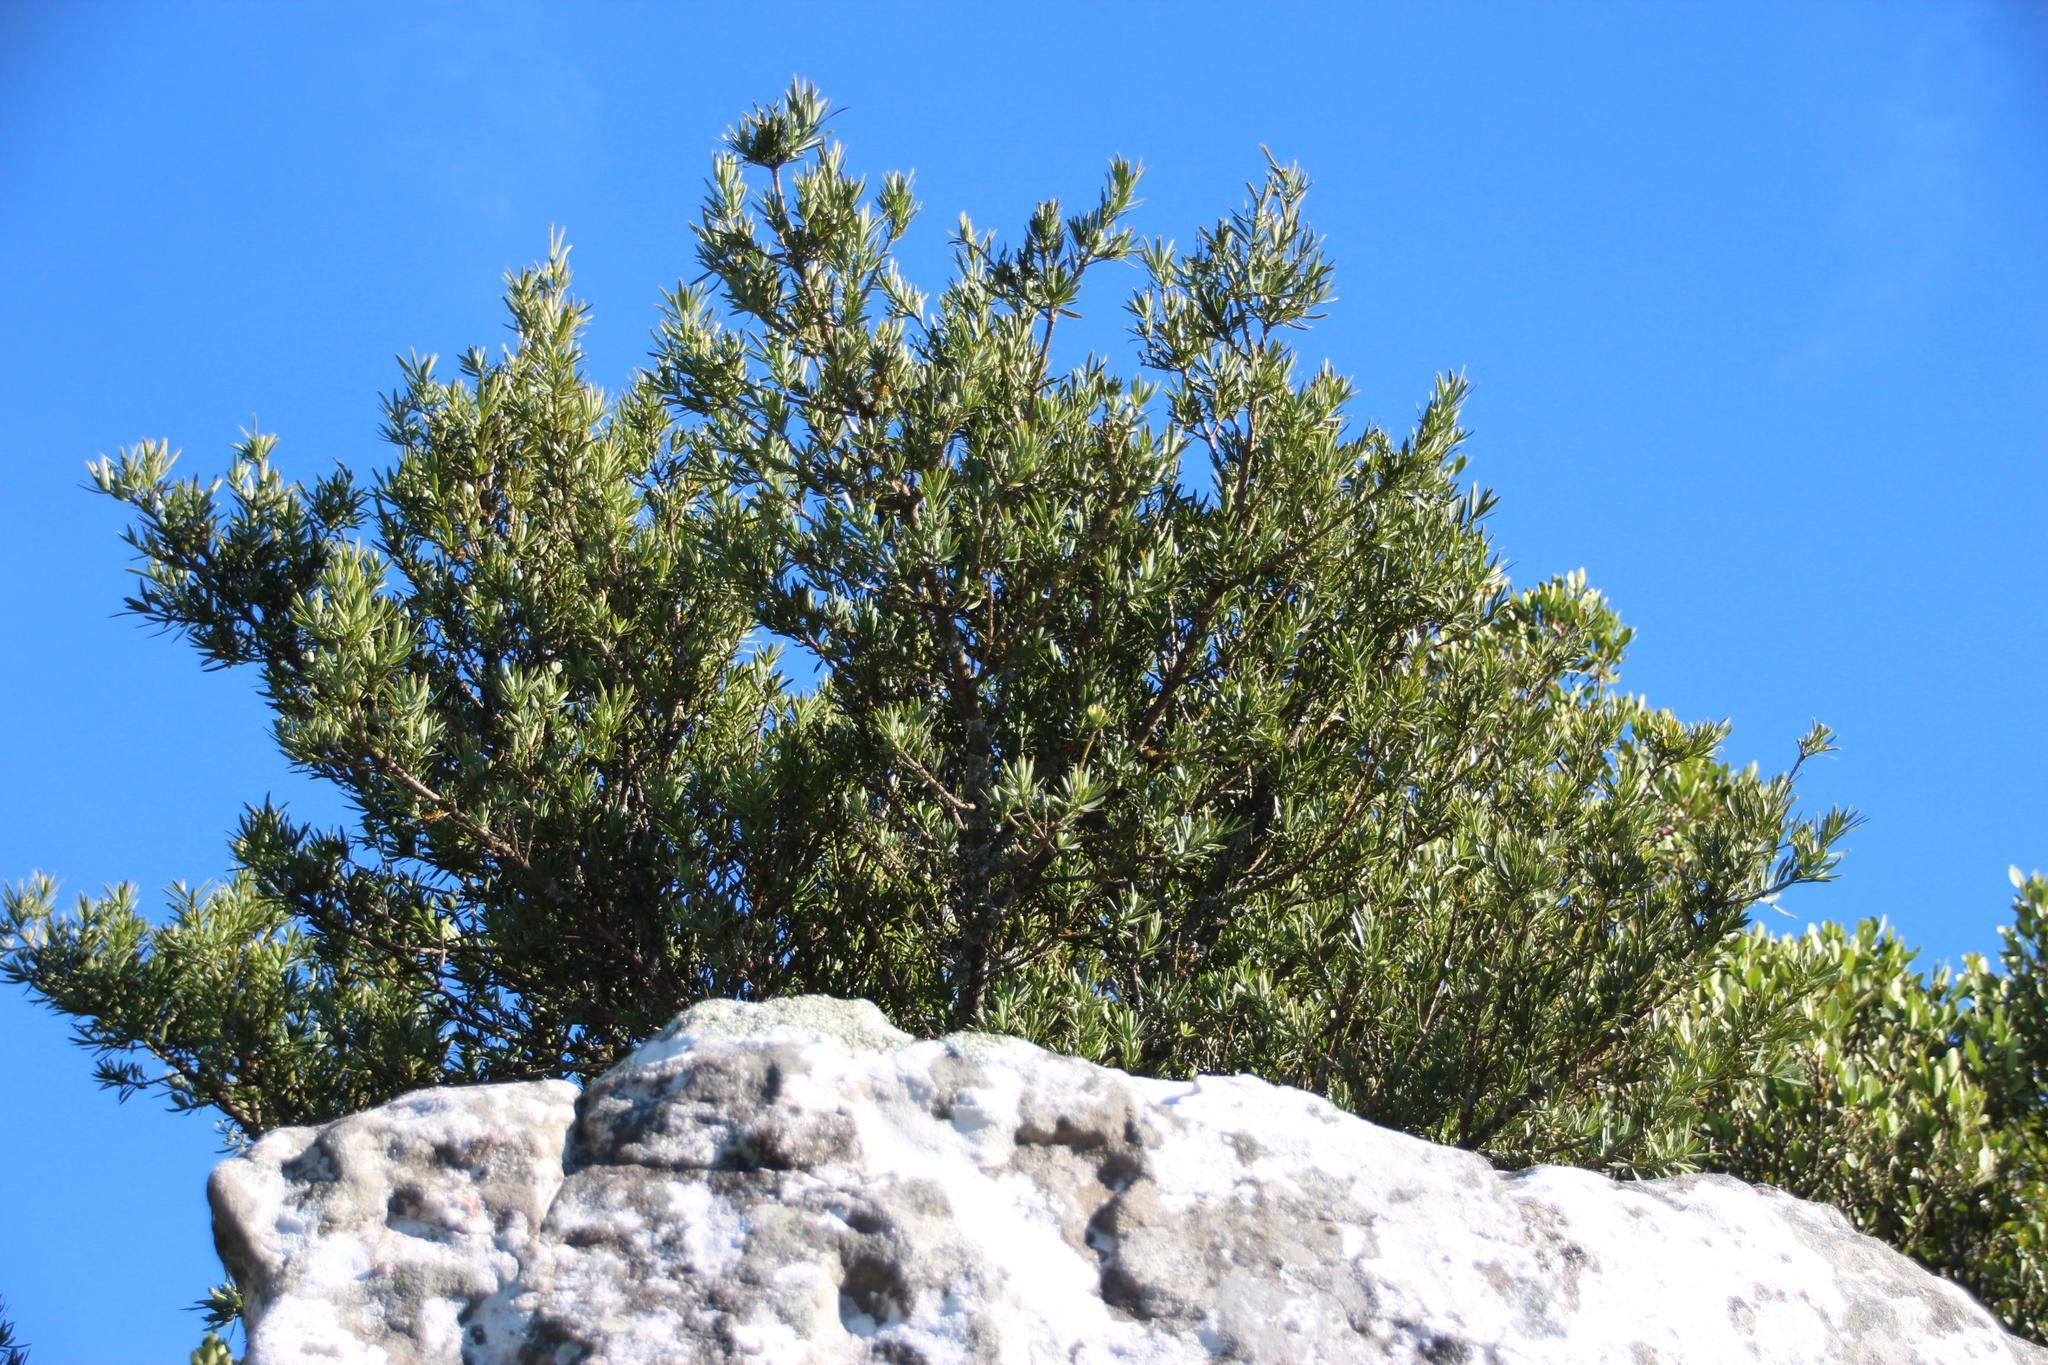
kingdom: Plantae
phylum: Tracheophyta
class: Pinopsida
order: Pinales
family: Podocarpaceae
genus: Podocarpus
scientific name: Podocarpus latifolius
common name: True yellowwood
